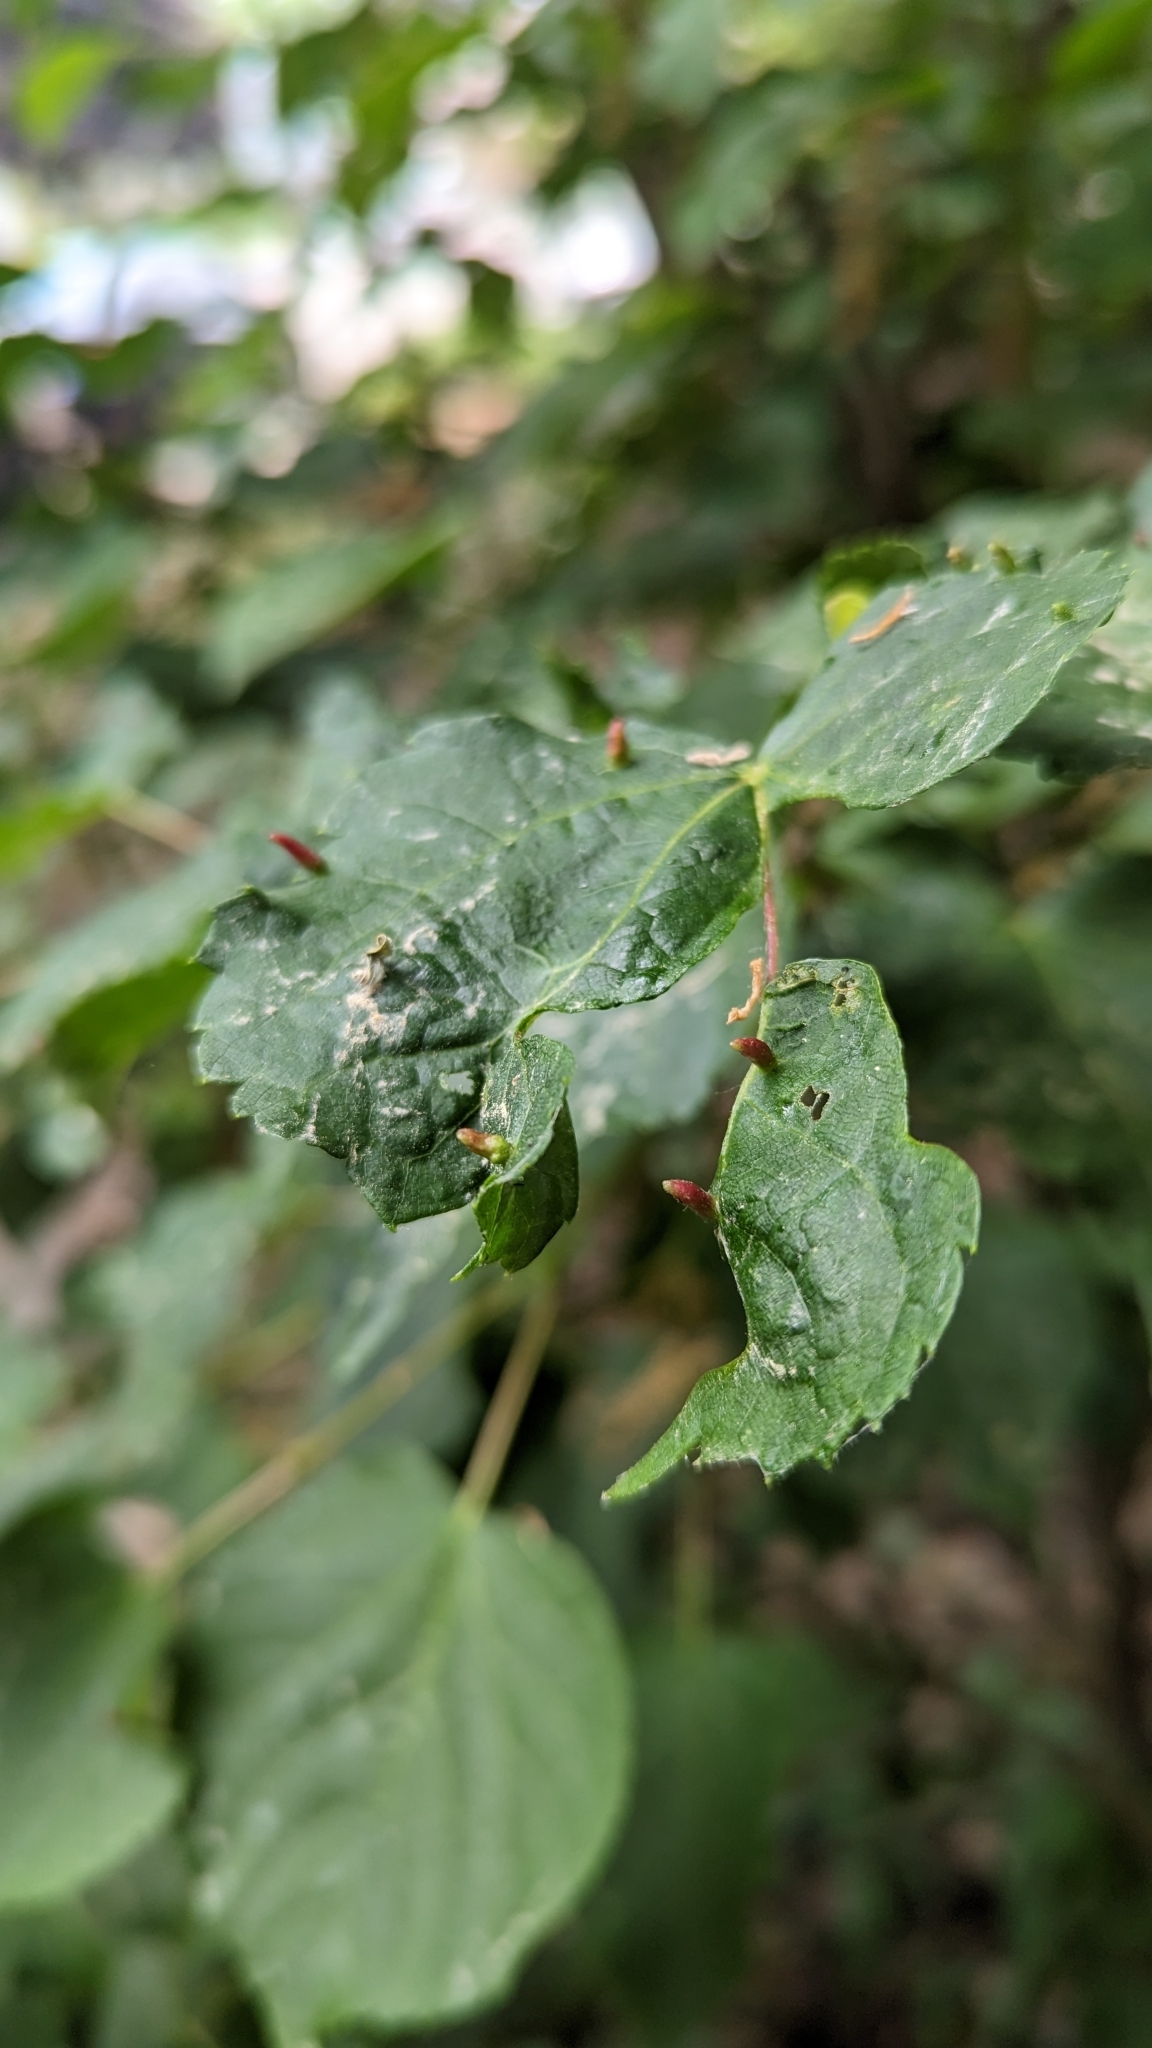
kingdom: Animalia
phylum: Arthropoda
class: Arachnida
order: Trombidiformes
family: Eriophyidae
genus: Eriophyes
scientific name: Eriophyes tiliae
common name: Red nail gall mite
